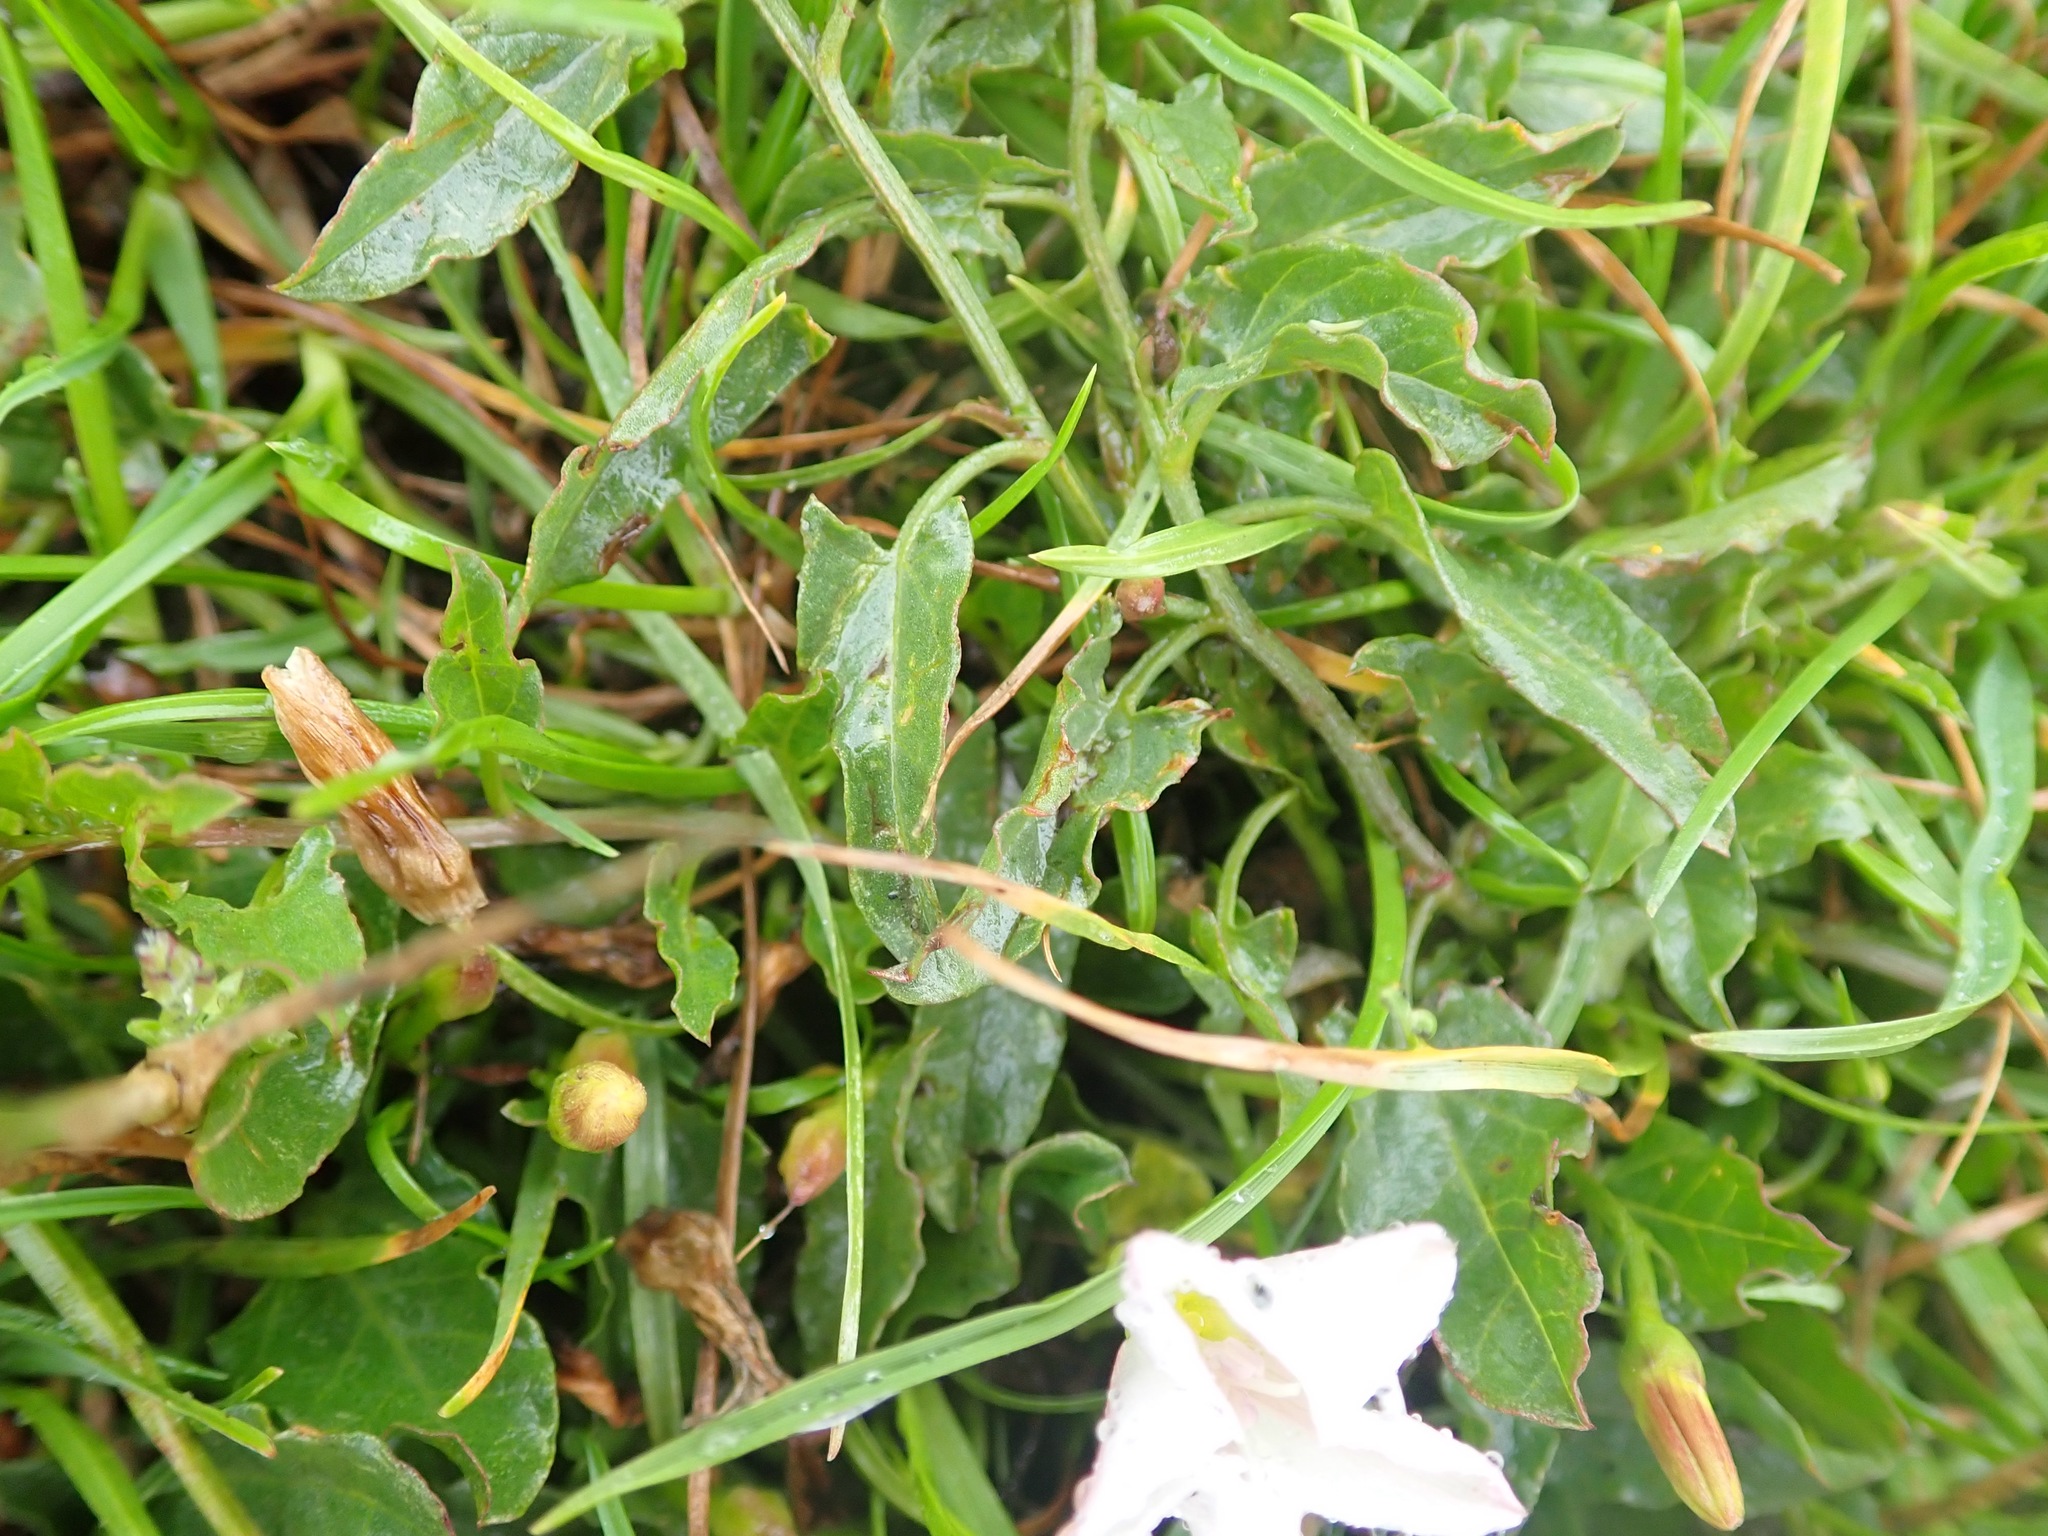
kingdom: Plantae
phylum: Tracheophyta
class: Magnoliopsida
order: Solanales
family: Convolvulaceae
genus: Convolvulus
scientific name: Convolvulus arvensis
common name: Field bindweed
